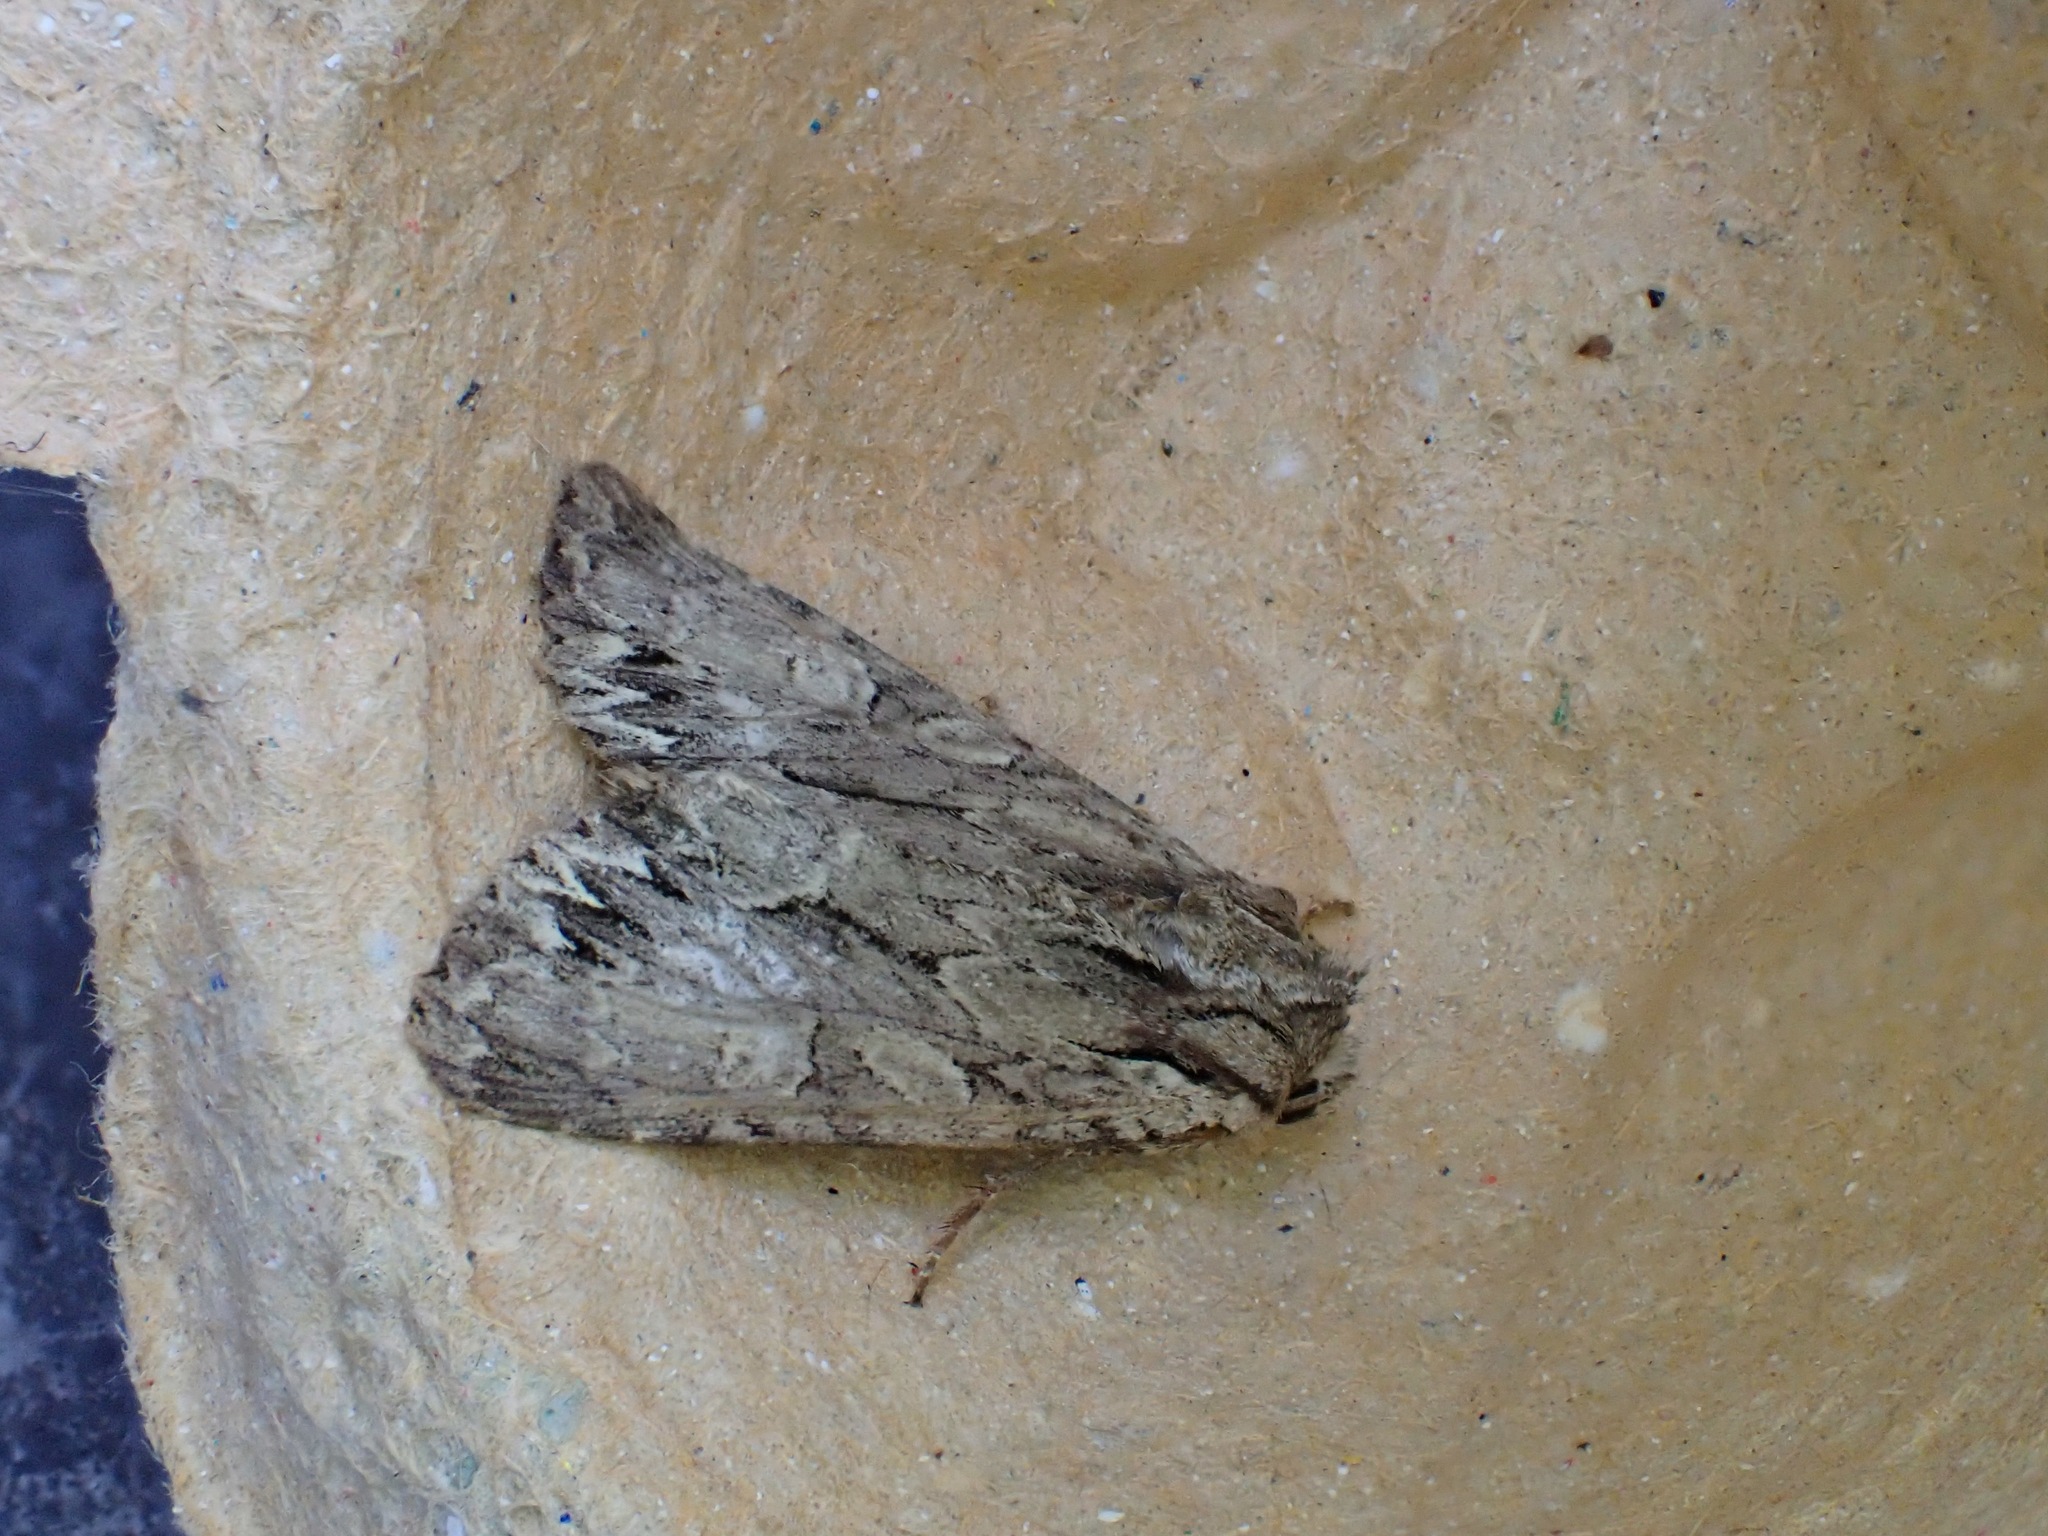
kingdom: Animalia
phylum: Arthropoda
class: Insecta
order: Lepidoptera
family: Noctuidae
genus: Apamea
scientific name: Apamea monoglypha
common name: Dark arches
